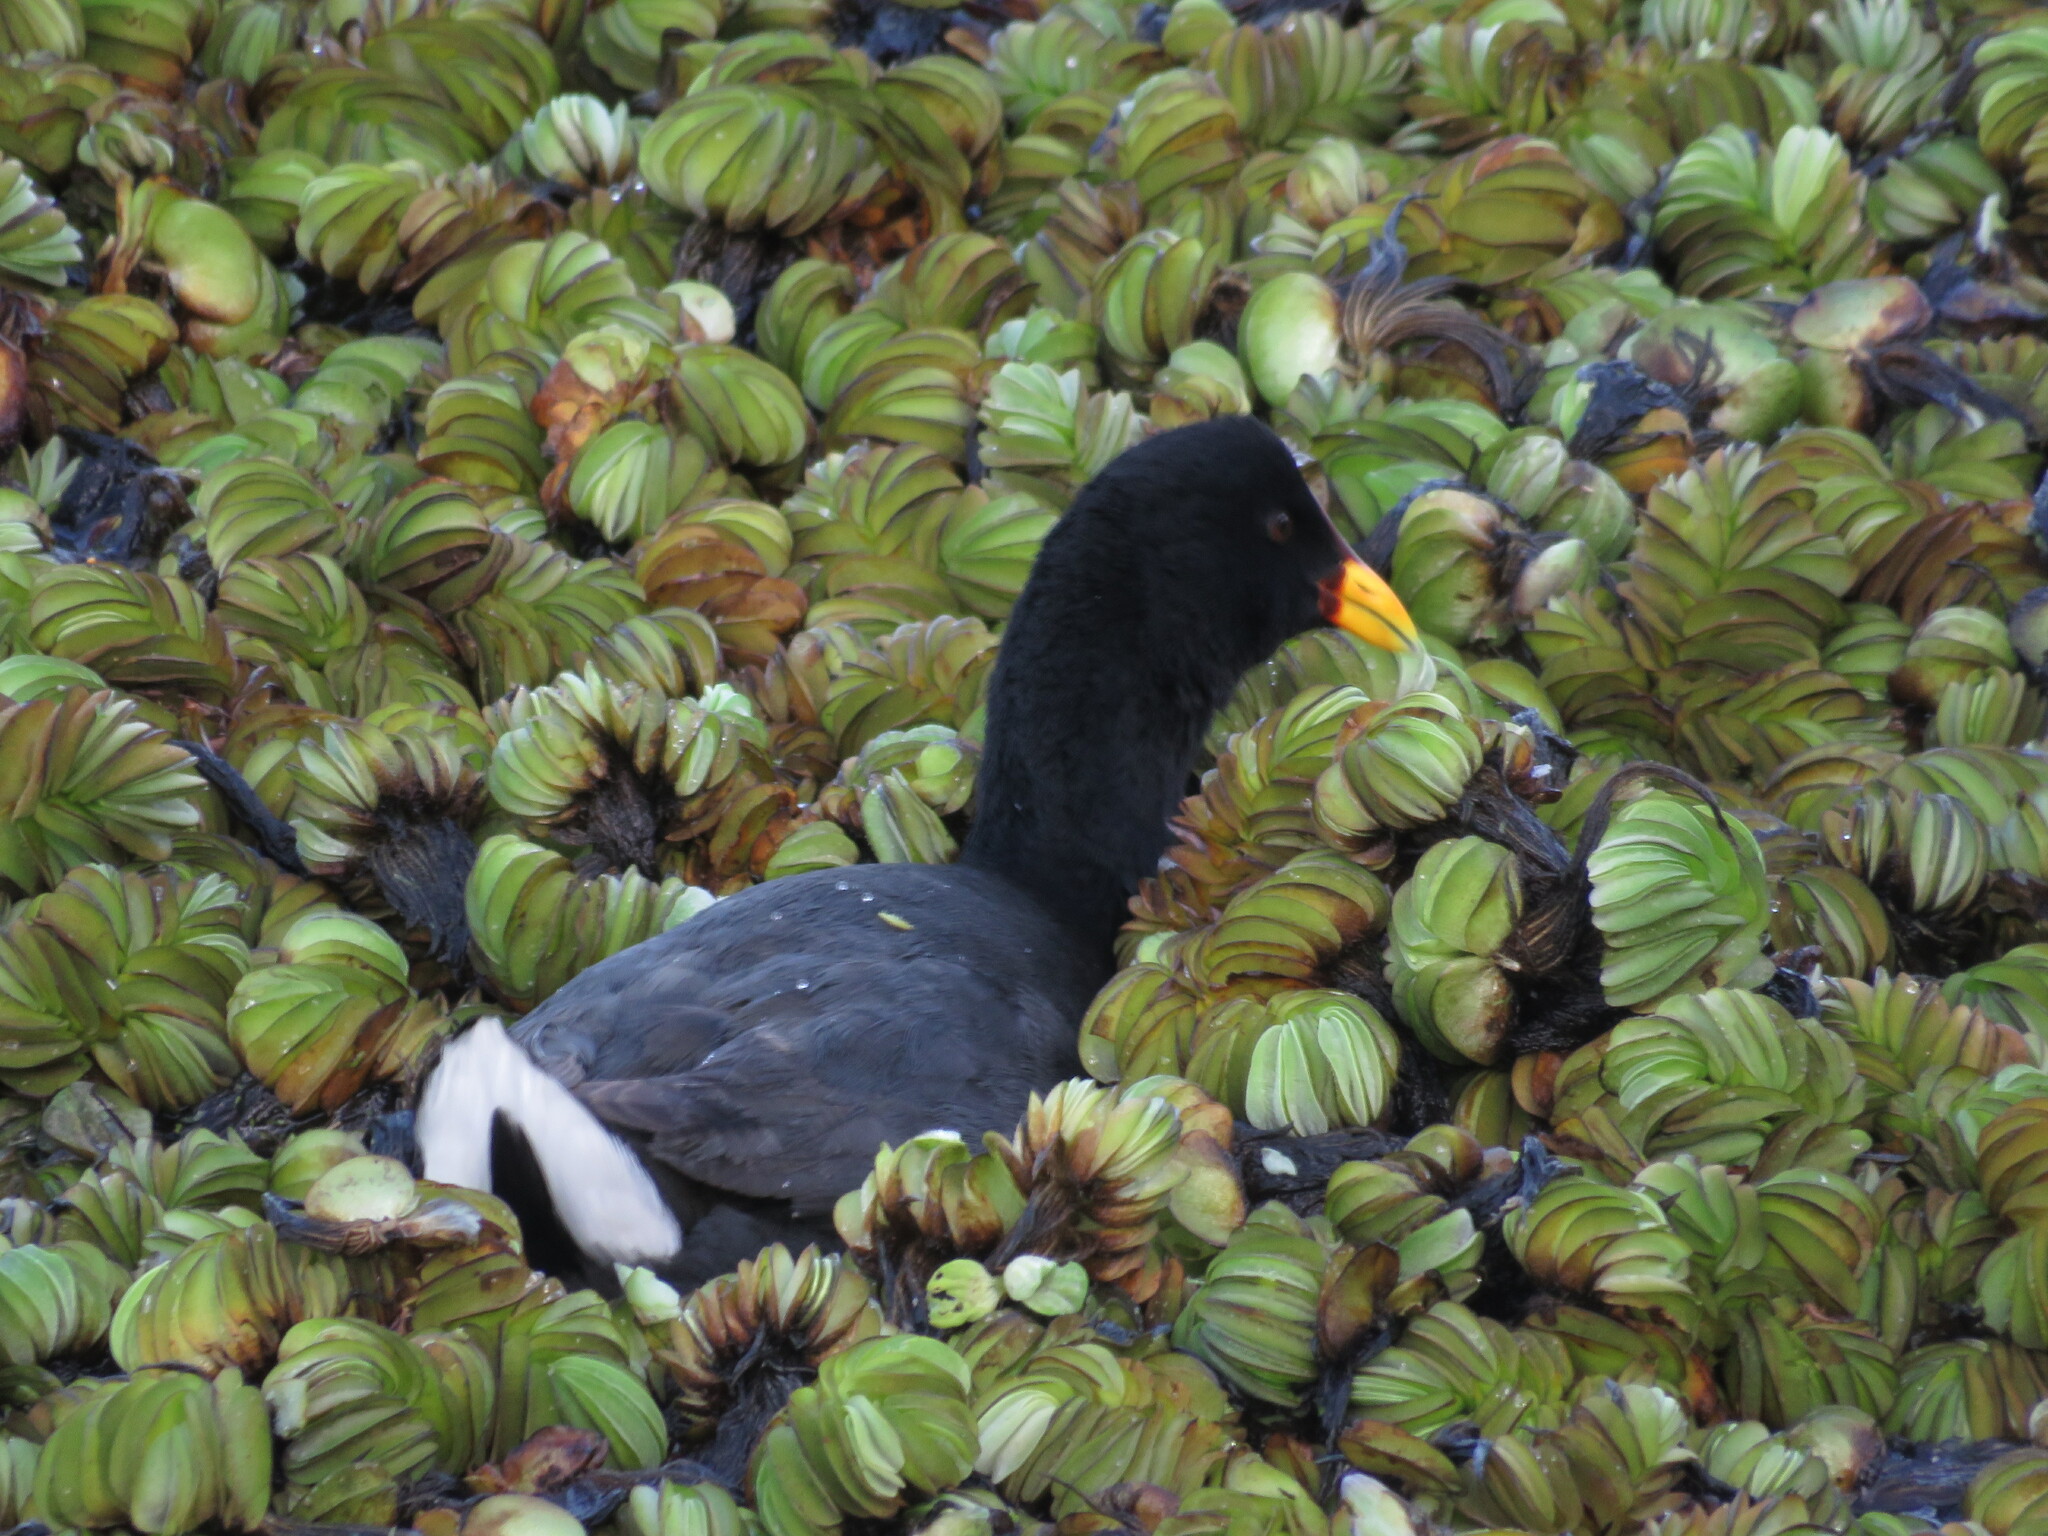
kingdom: Animalia
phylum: Chordata
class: Aves
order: Gruiformes
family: Rallidae
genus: Fulica
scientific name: Fulica rufifrons
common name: Red-fronted coot
